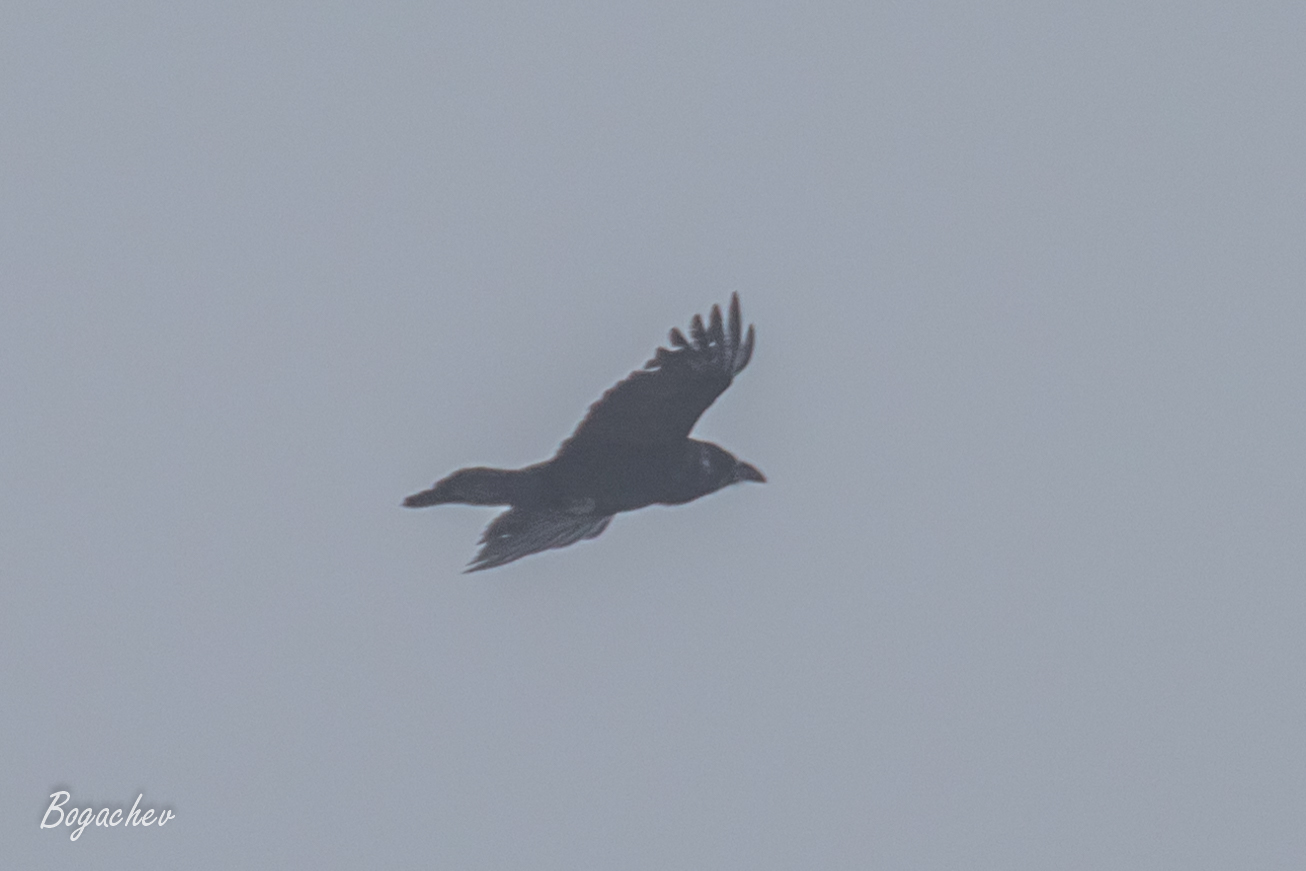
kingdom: Animalia
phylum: Chordata
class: Aves
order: Passeriformes
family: Corvidae
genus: Corvus
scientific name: Corvus corax
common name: Common raven
